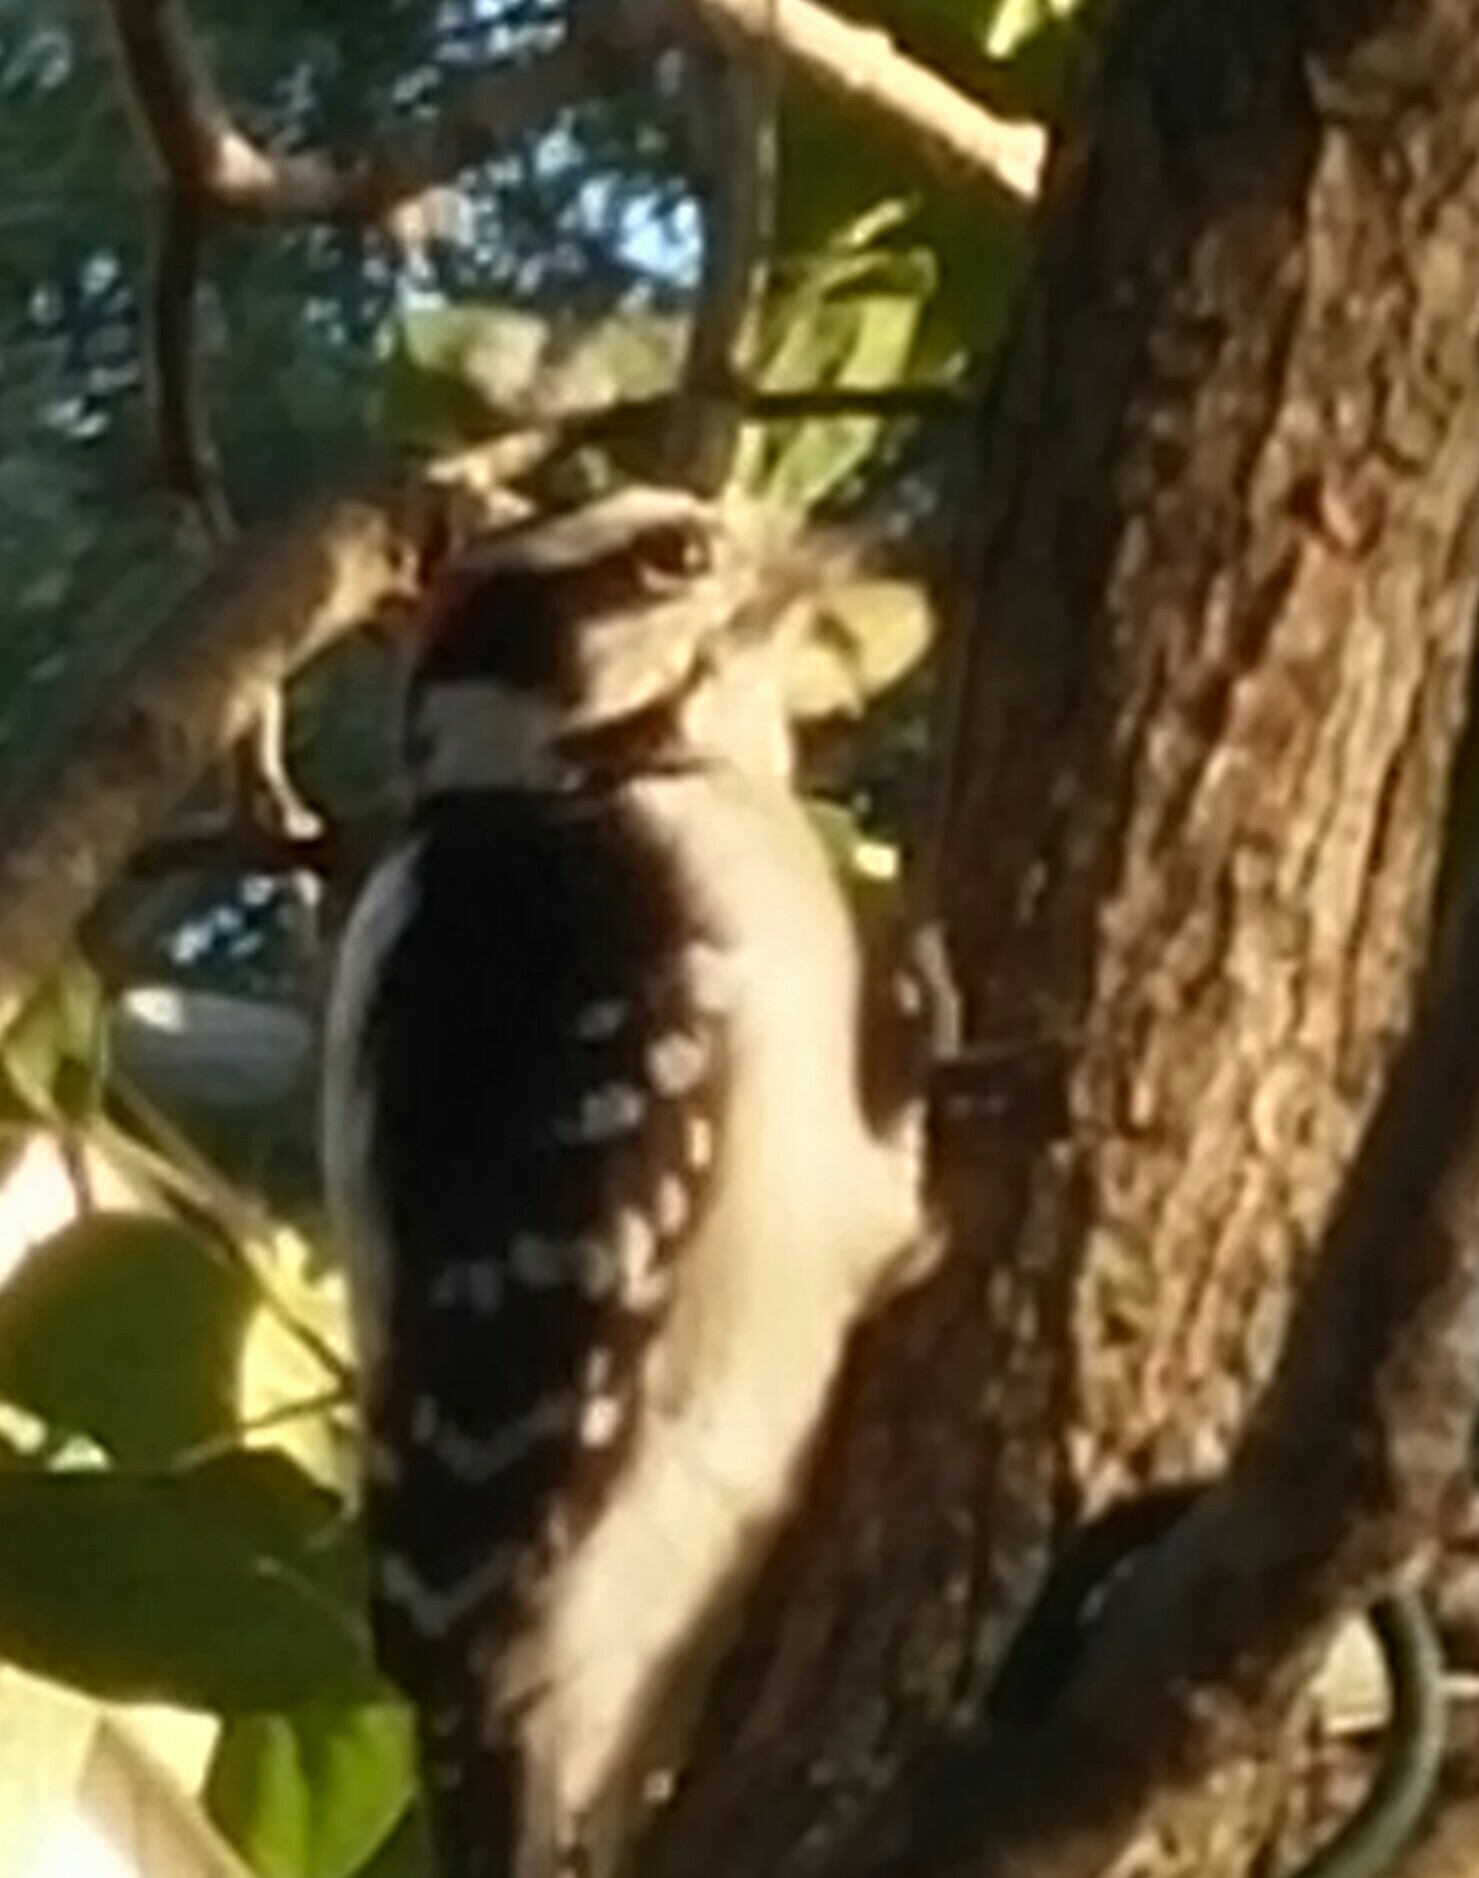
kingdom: Animalia
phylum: Chordata
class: Aves
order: Piciformes
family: Picidae
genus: Dryobates
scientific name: Dryobates pubescens
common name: Downy woodpecker
